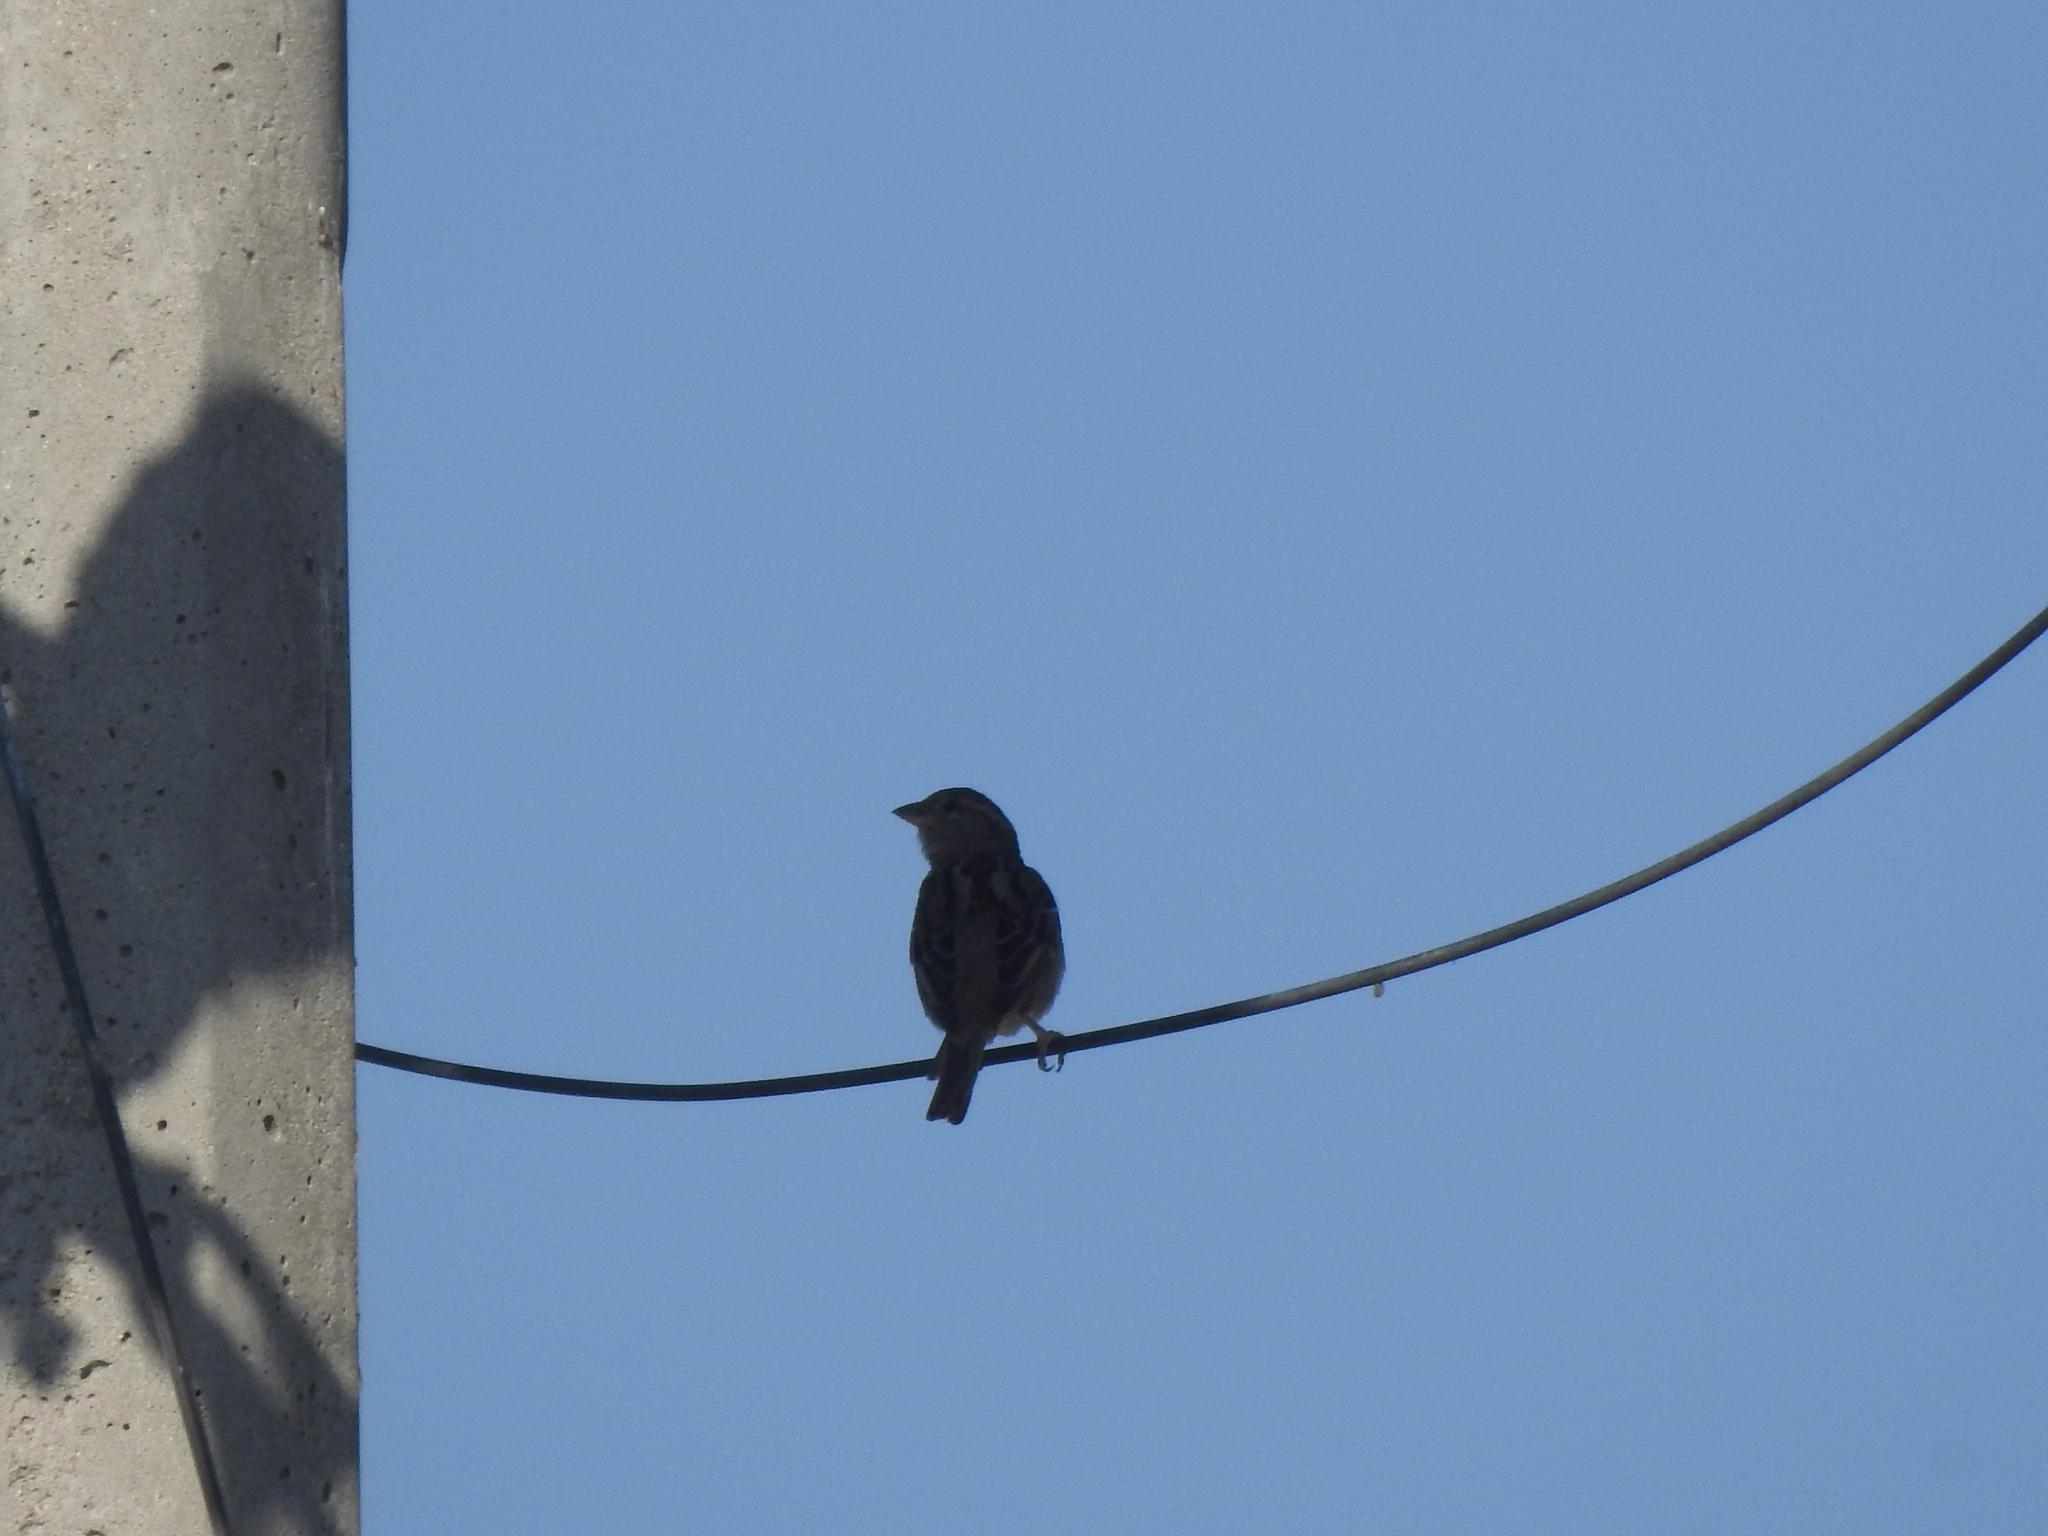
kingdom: Animalia
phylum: Chordata
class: Aves
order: Passeriformes
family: Passeridae
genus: Passer
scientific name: Passer domesticus
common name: House sparrow
